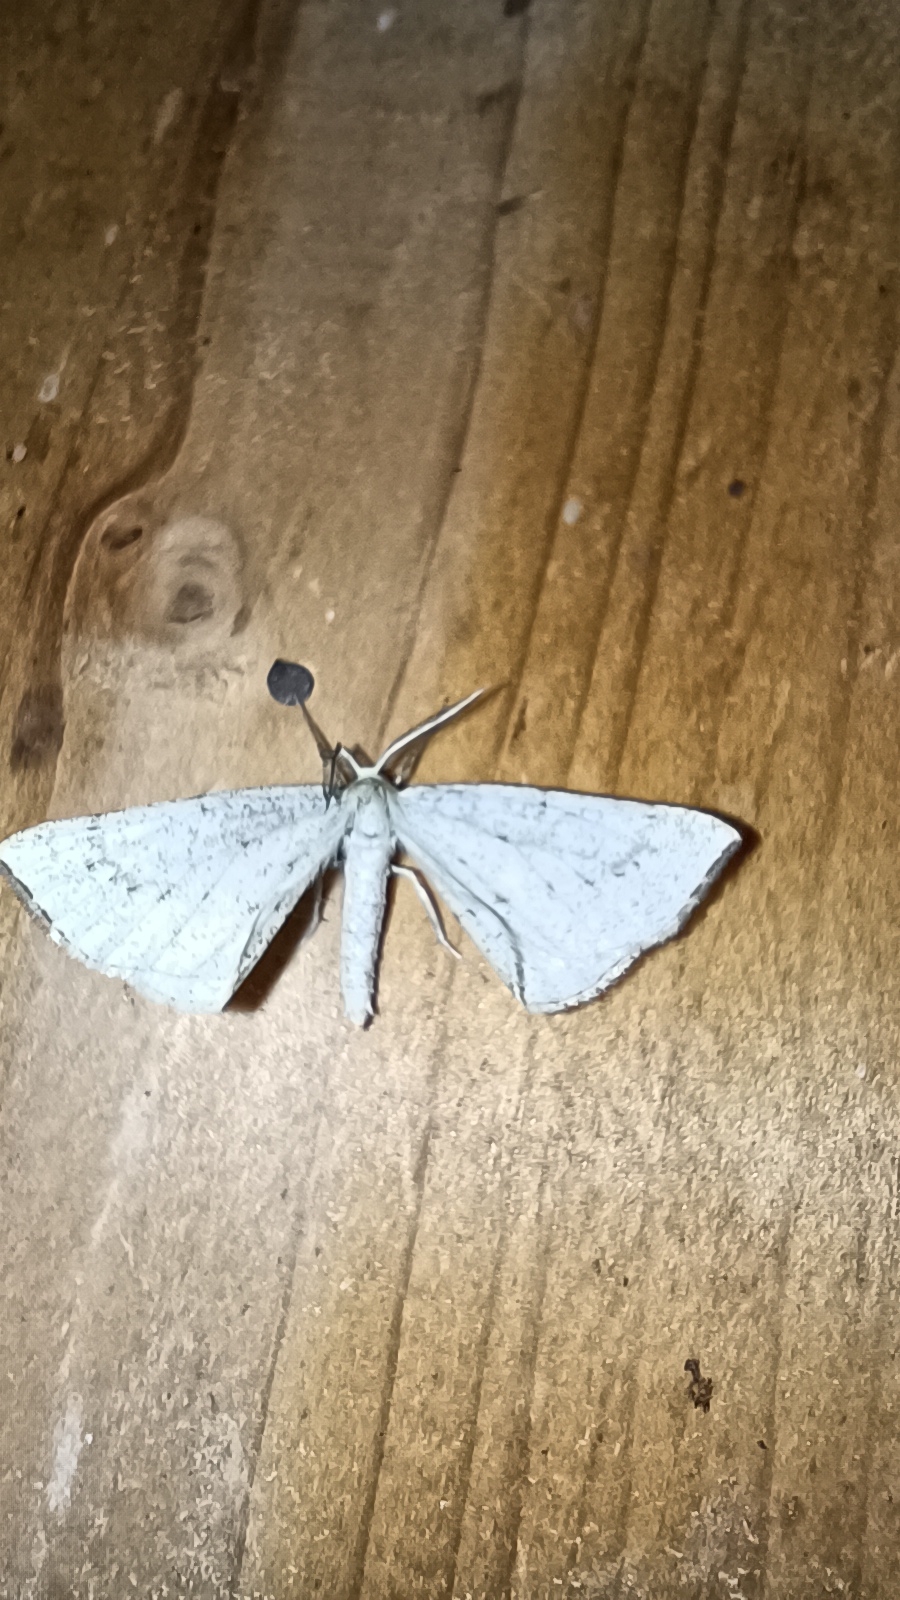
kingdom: Animalia
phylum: Arthropoda
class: Insecta
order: Lepidoptera
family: Geometridae
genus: Hypoxystis
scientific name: Hypoxystis pluviaria
